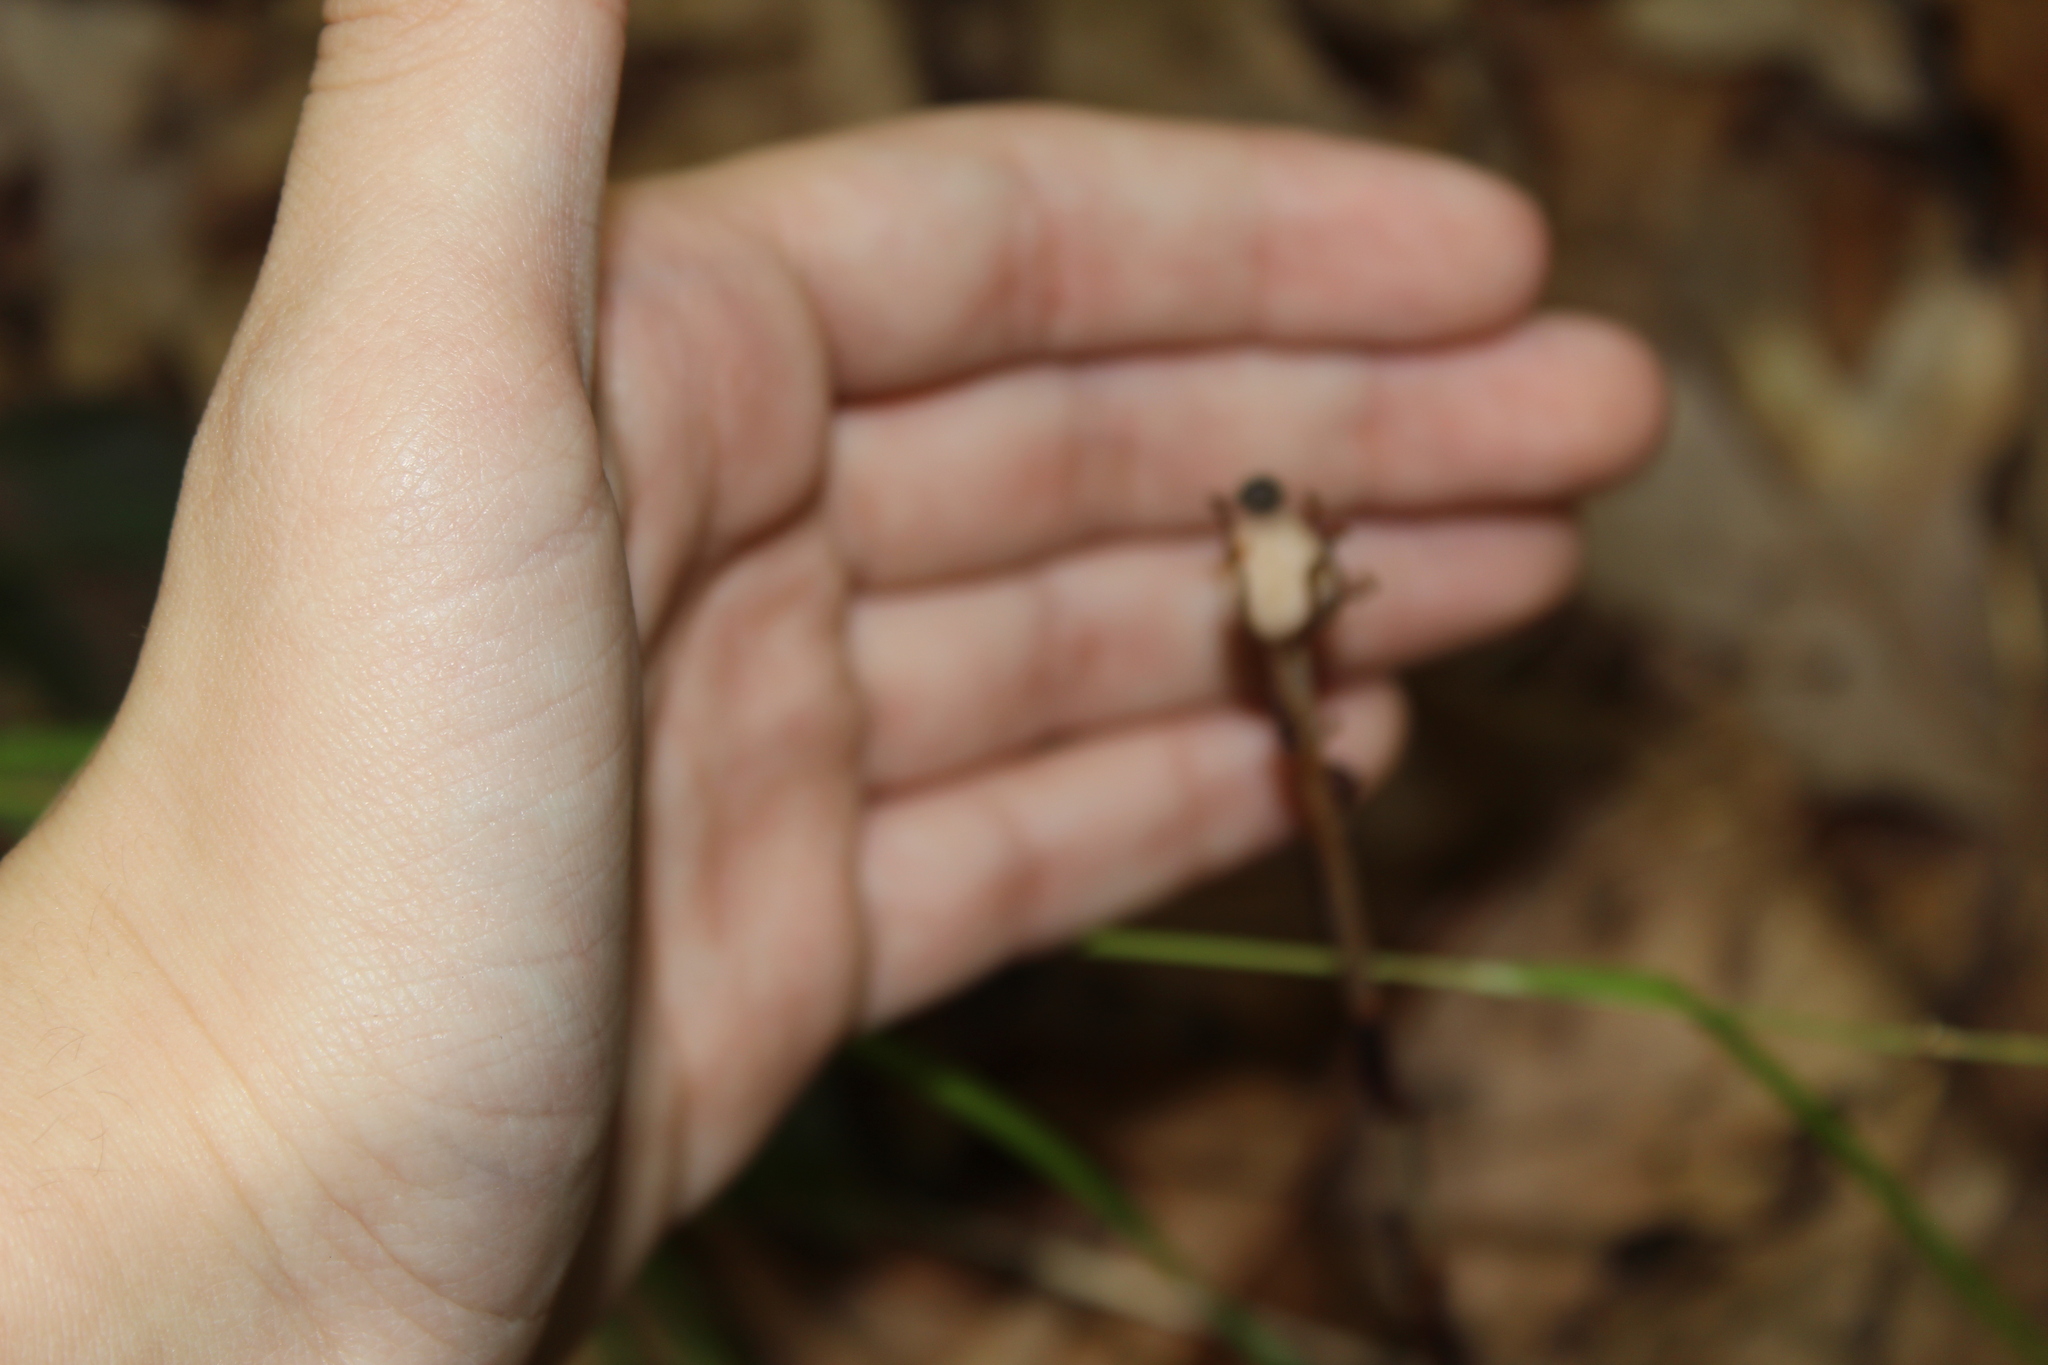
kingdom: Plantae
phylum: Tracheophyta
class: Magnoliopsida
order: Ericales
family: Ericaceae
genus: Monotropa
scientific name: Monotropa uniflora
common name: Convulsion root
